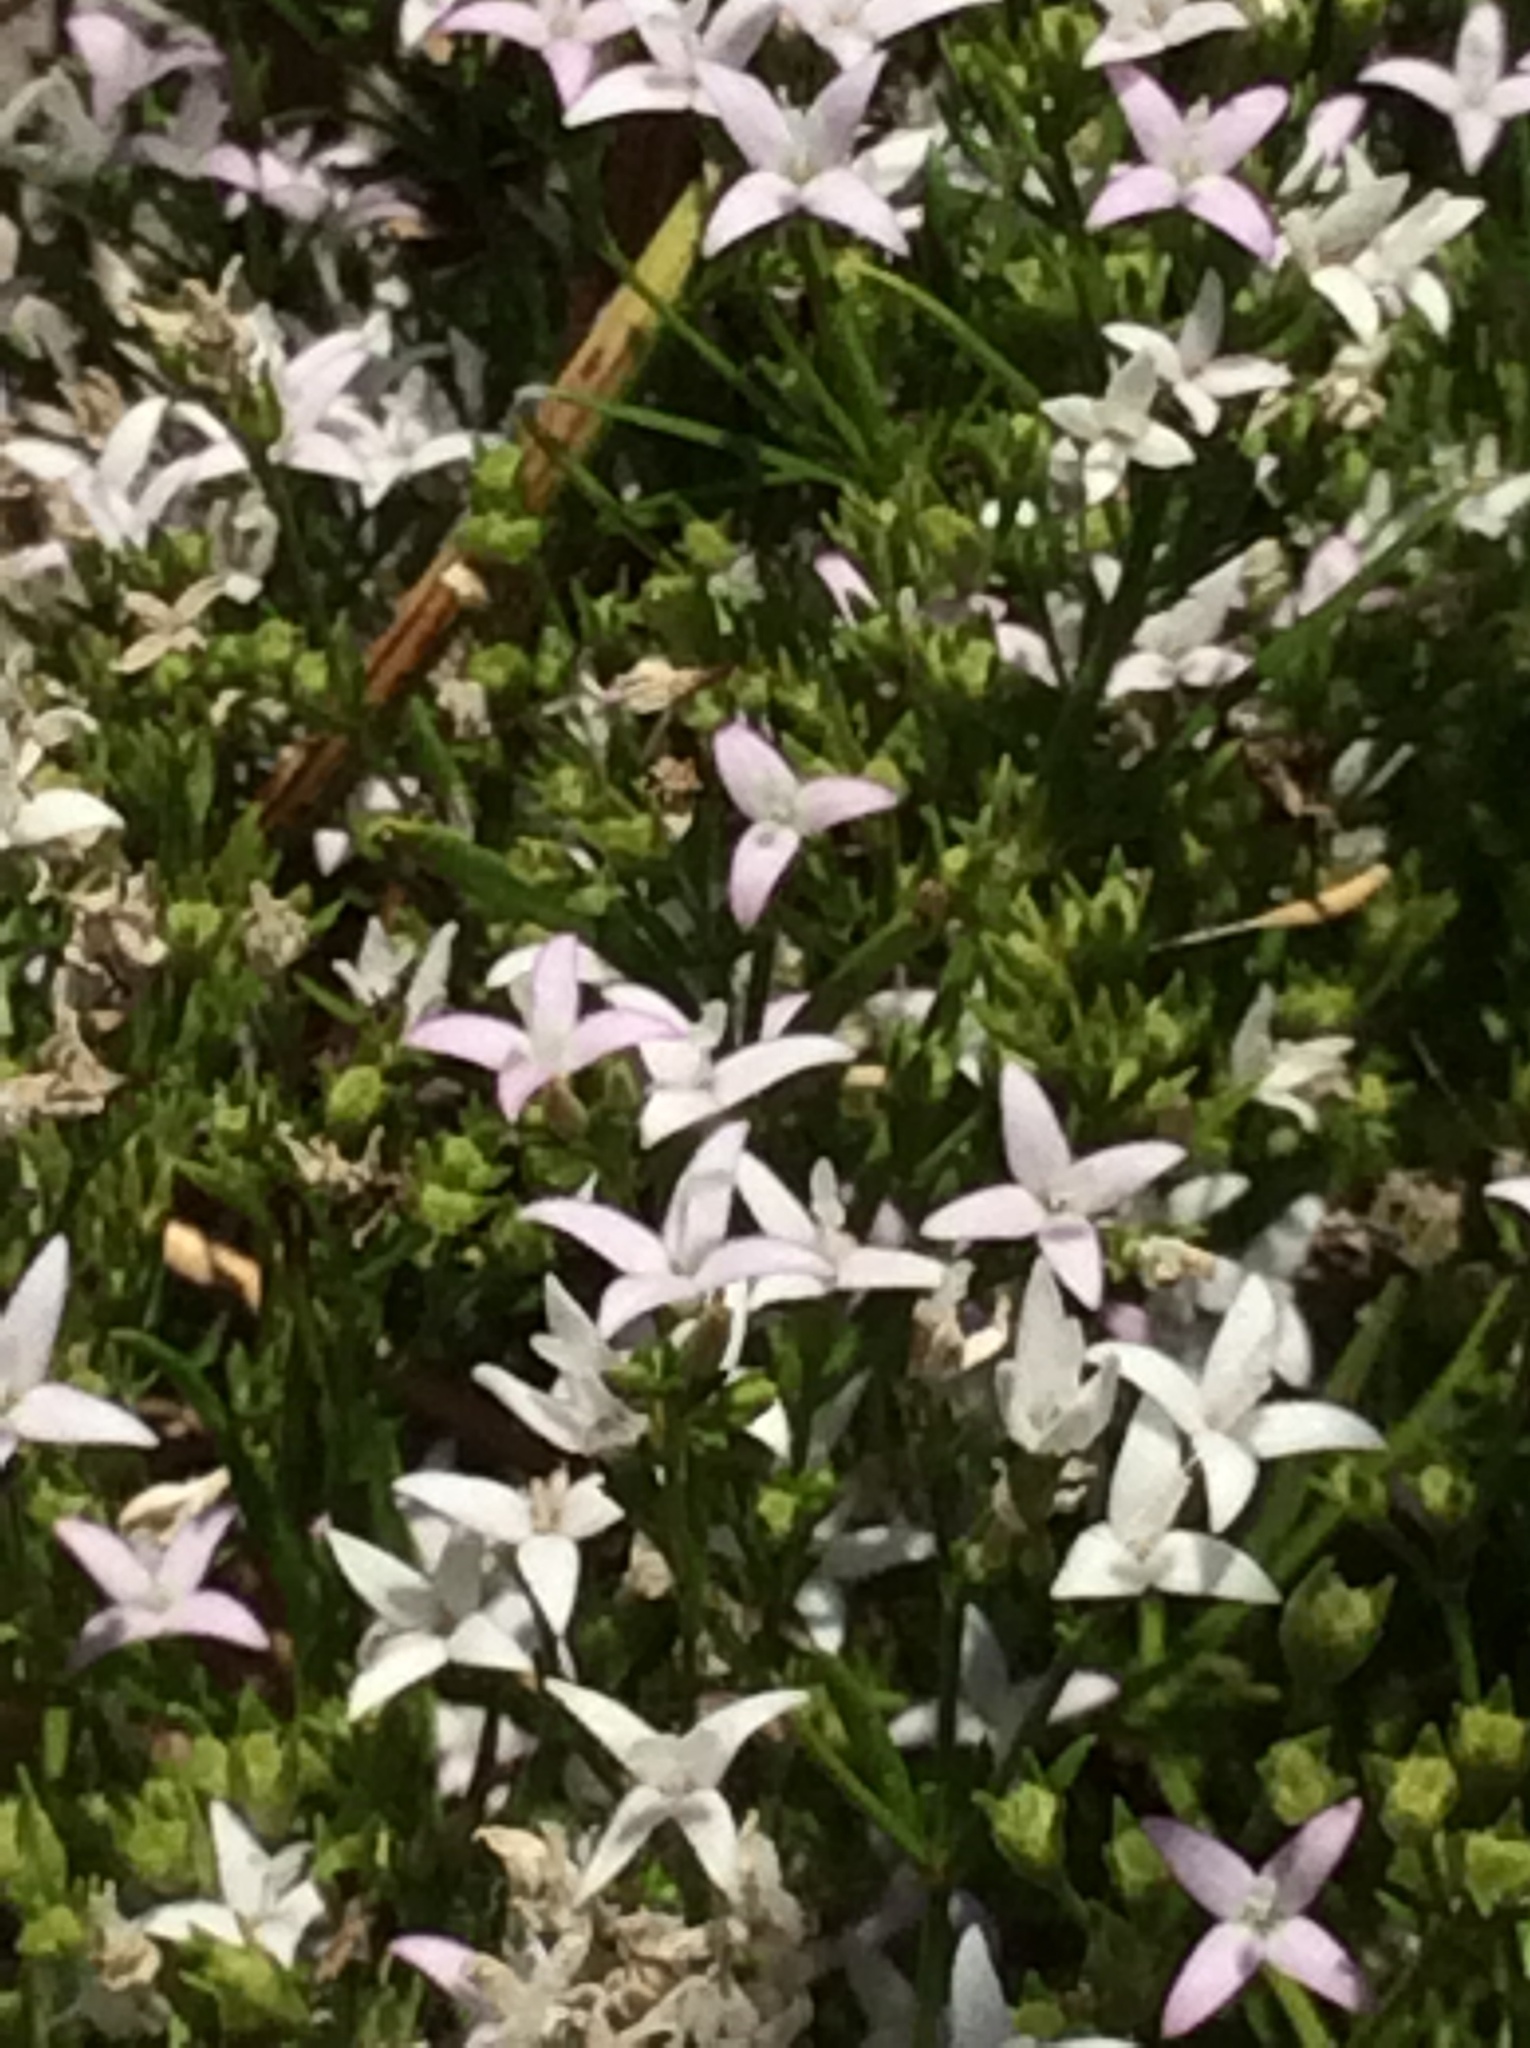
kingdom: Plantae
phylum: Tracheophyta
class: Magnoliopsida
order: Gentianales
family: Rubiaceae
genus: Stenaria
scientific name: Stenaria nigricans
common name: Diamondflowers
